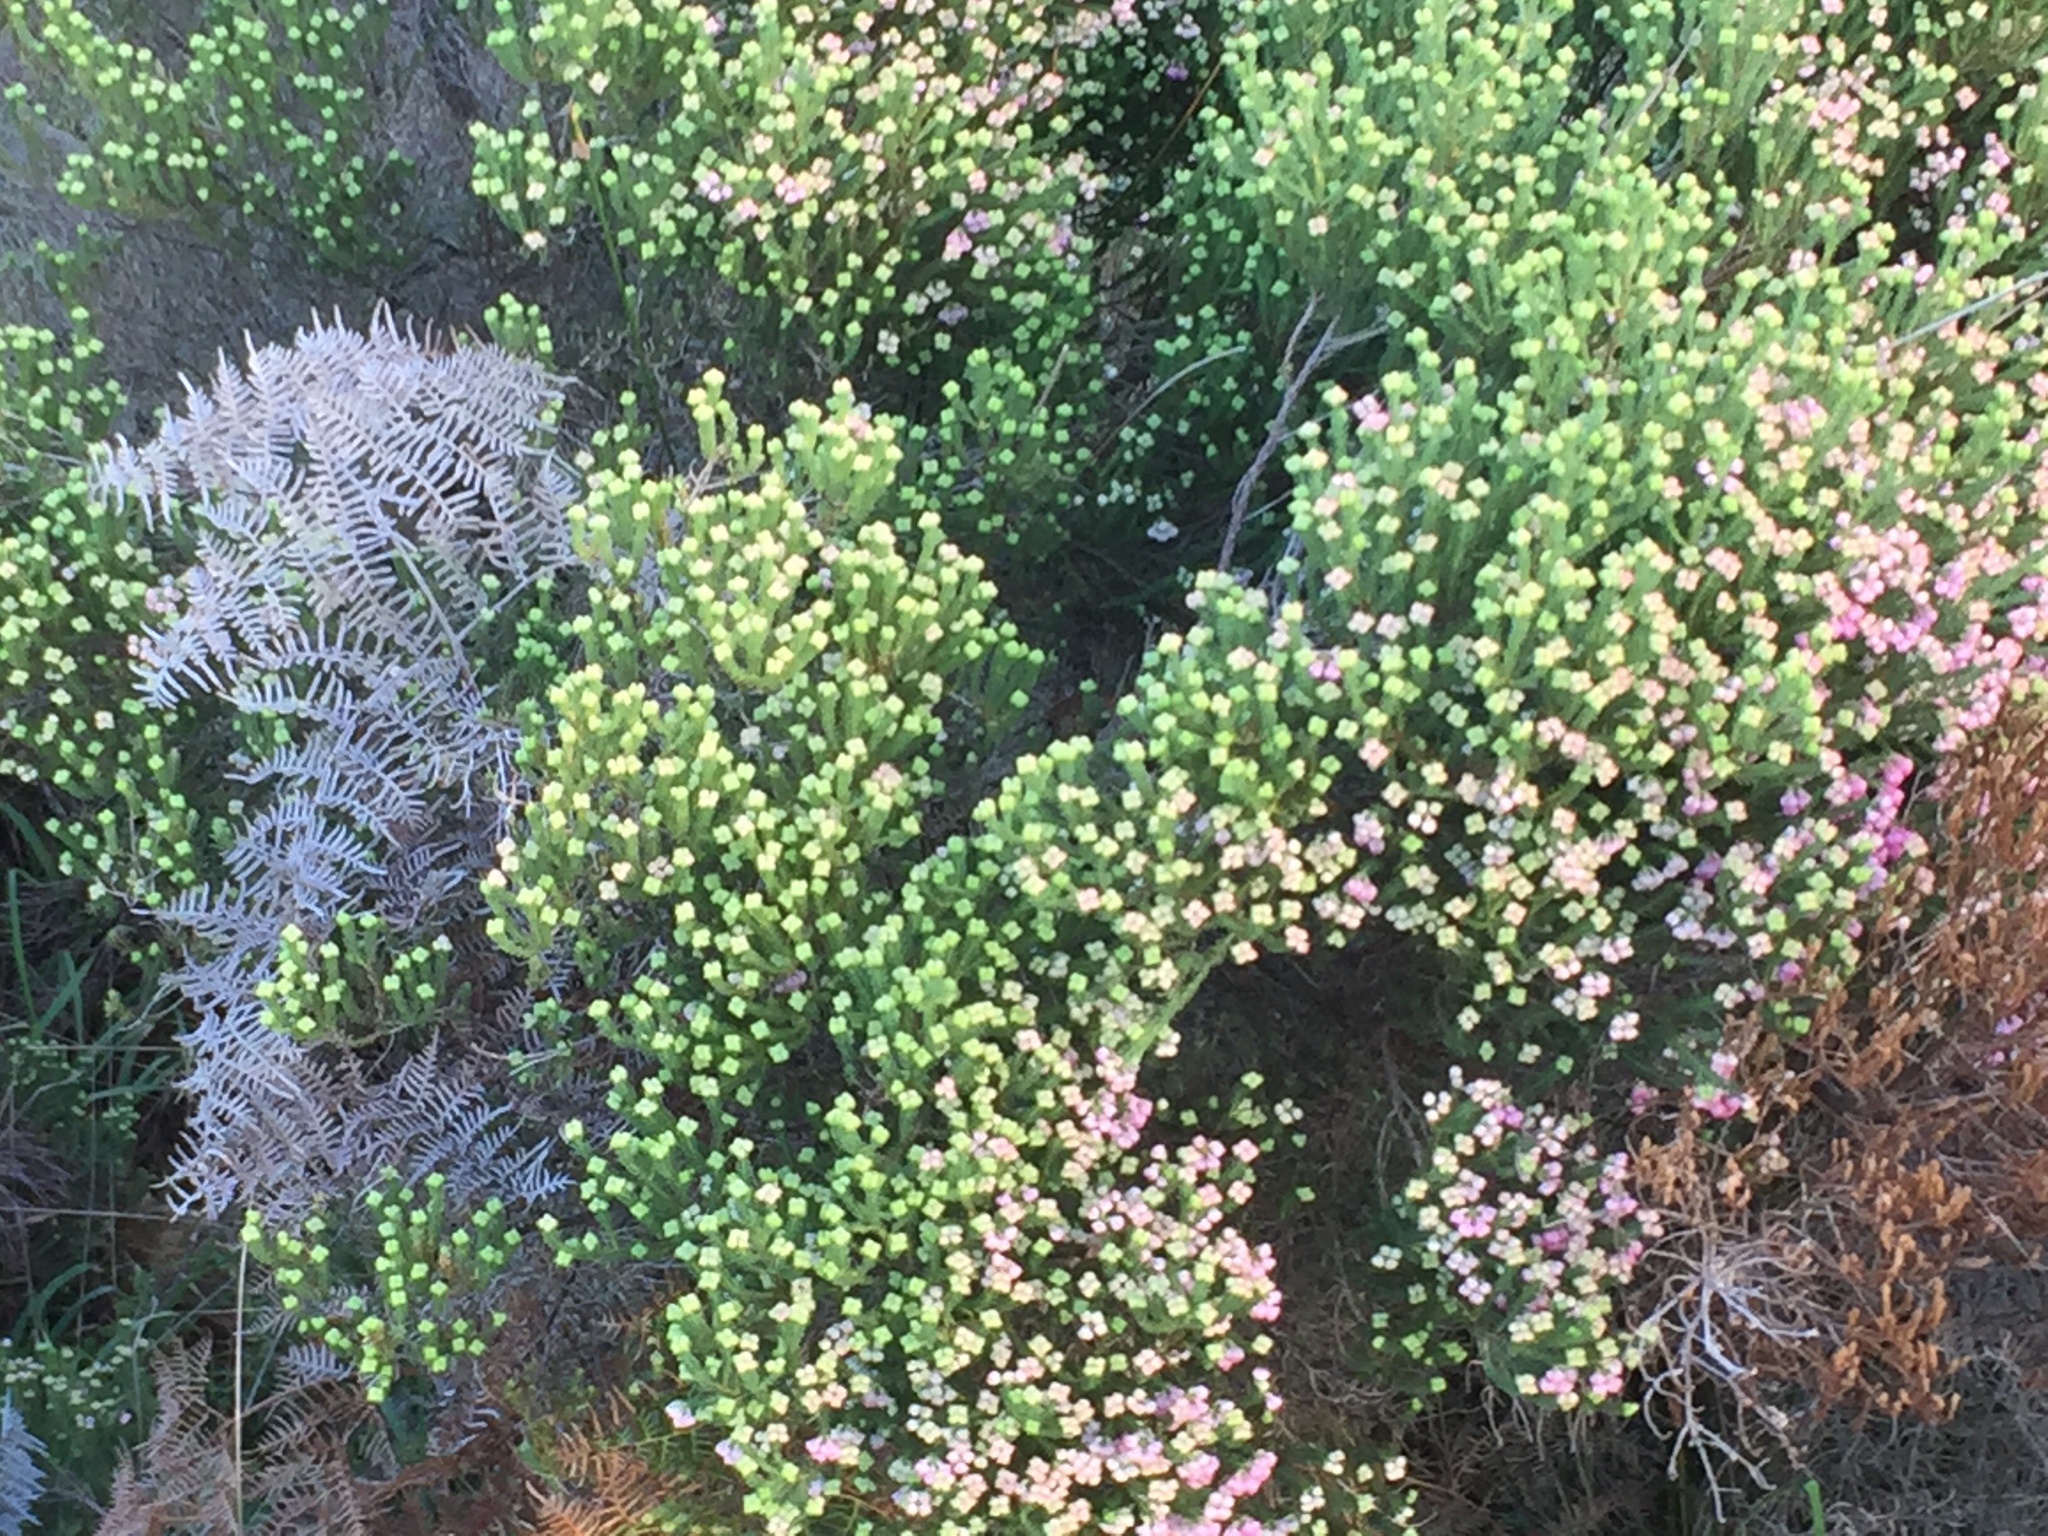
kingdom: Plantae
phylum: Tracheophyta
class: Magnoliopsida
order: Ericales
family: Ericaceae
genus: Erica
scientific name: Erica baccans
